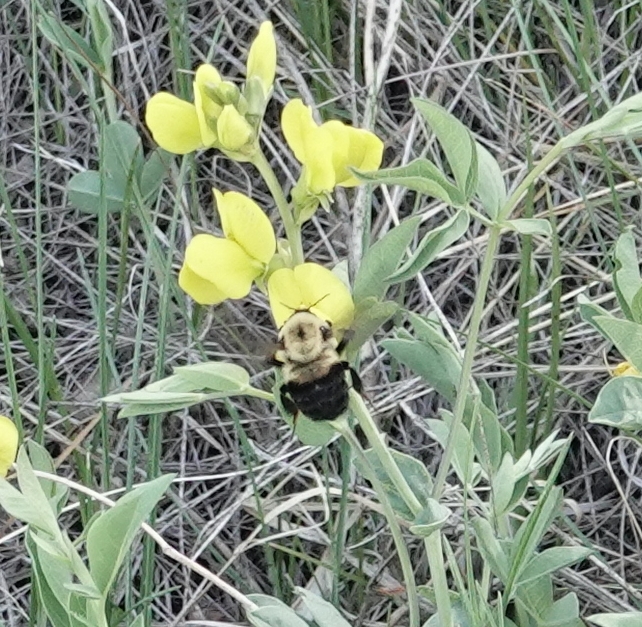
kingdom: Animalia
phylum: Arthropoda
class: Insecta
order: Hymenoptera
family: Apidae
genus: Bombus
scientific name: Bombus griseocollis
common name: Brown-belted bumble bee
